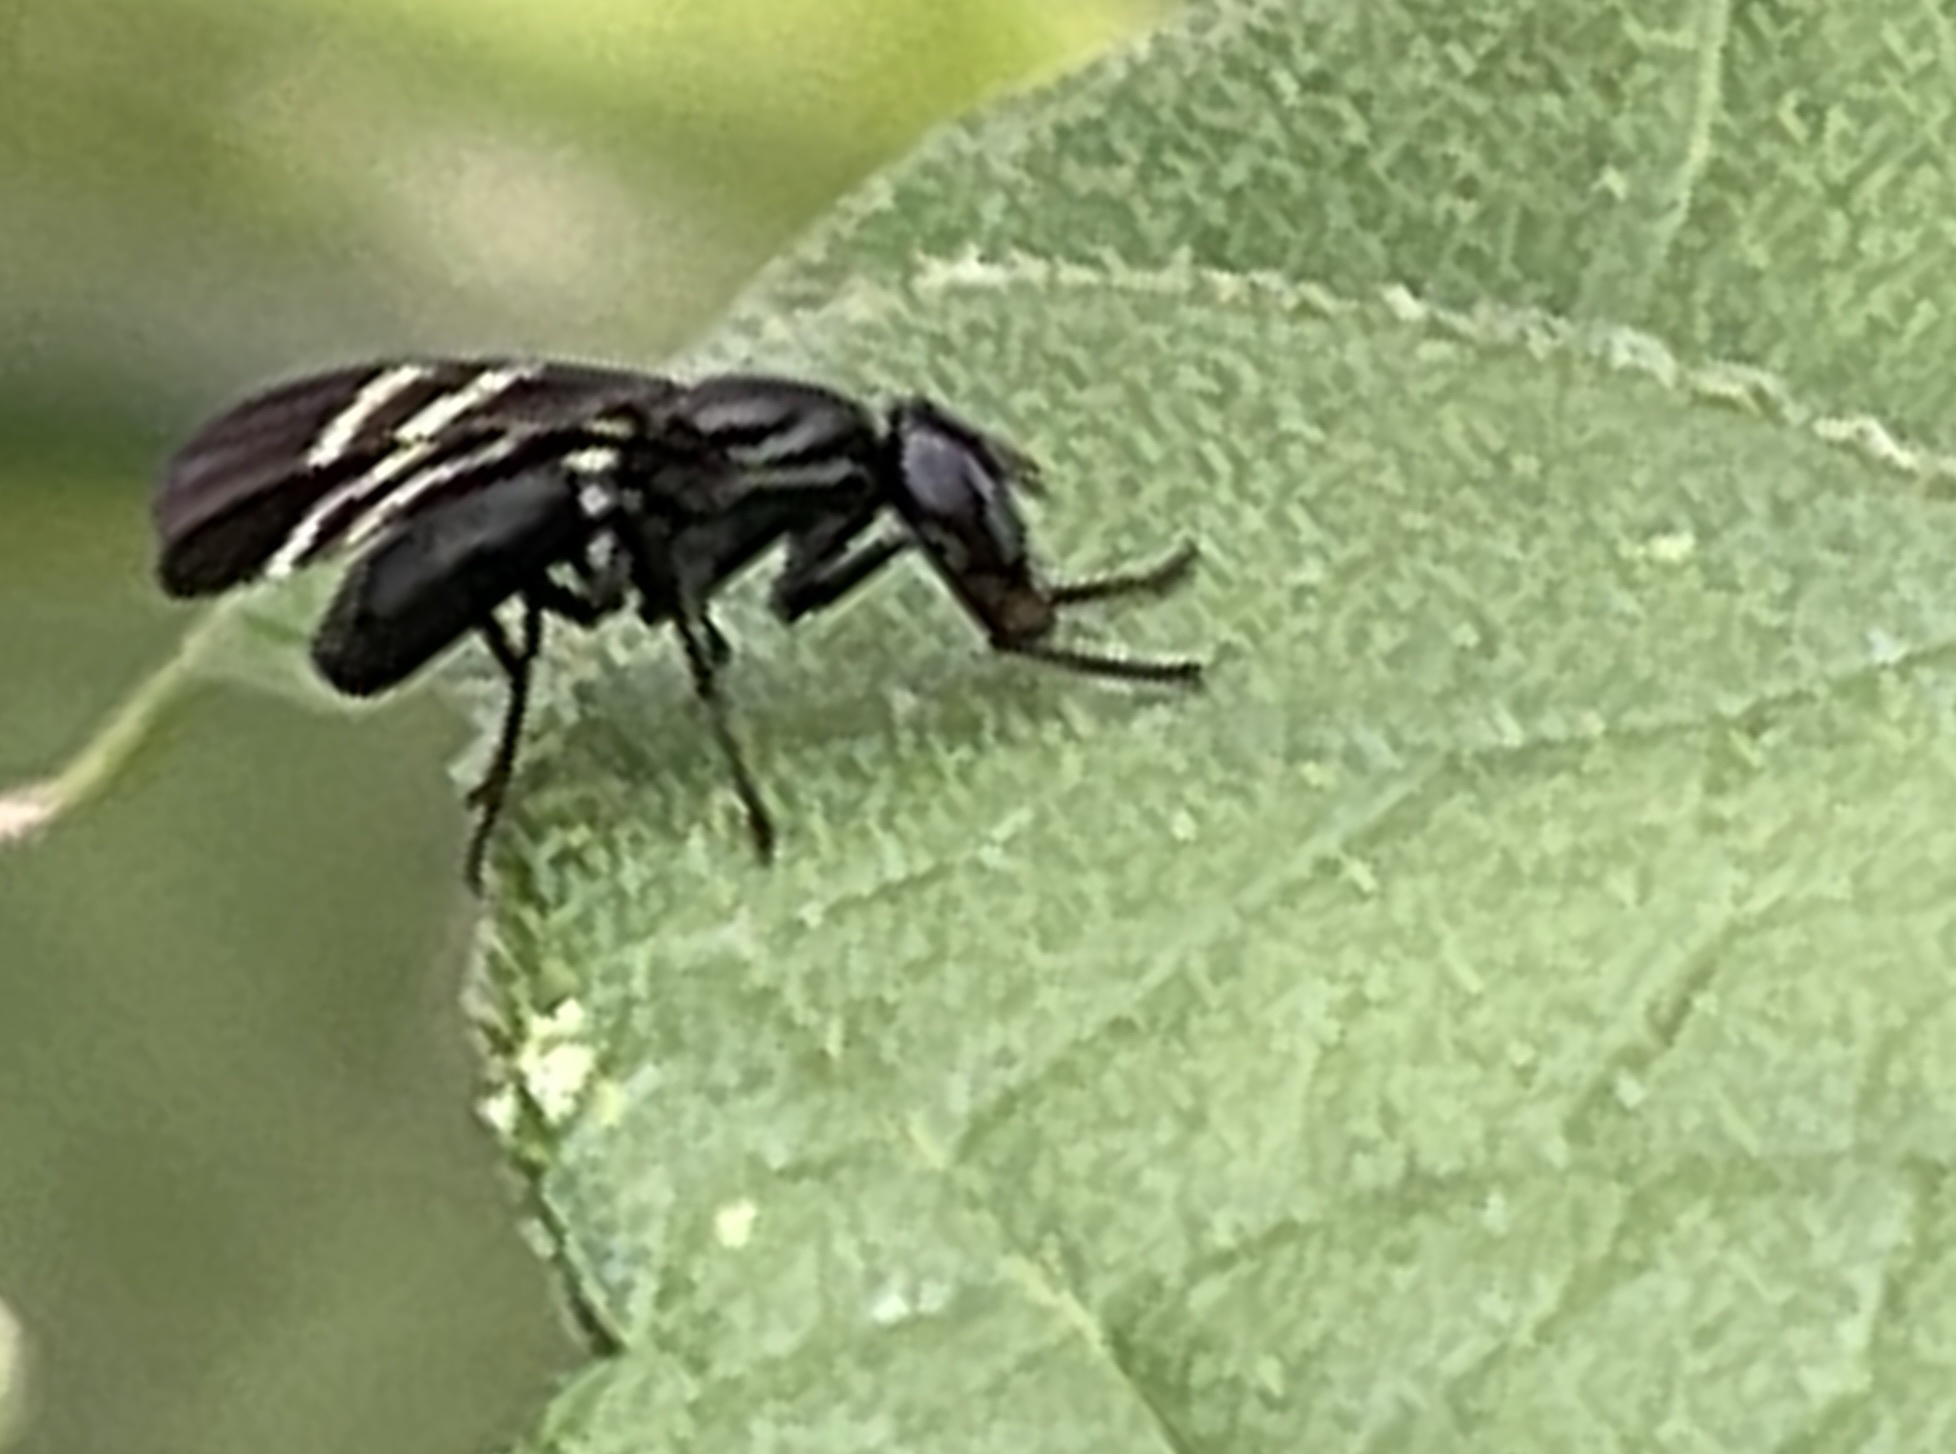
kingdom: Animalia
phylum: Arthropoda
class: Insecta
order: Diptera
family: Ulidiidae
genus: Tritoxa
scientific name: Tritoxa flexa
